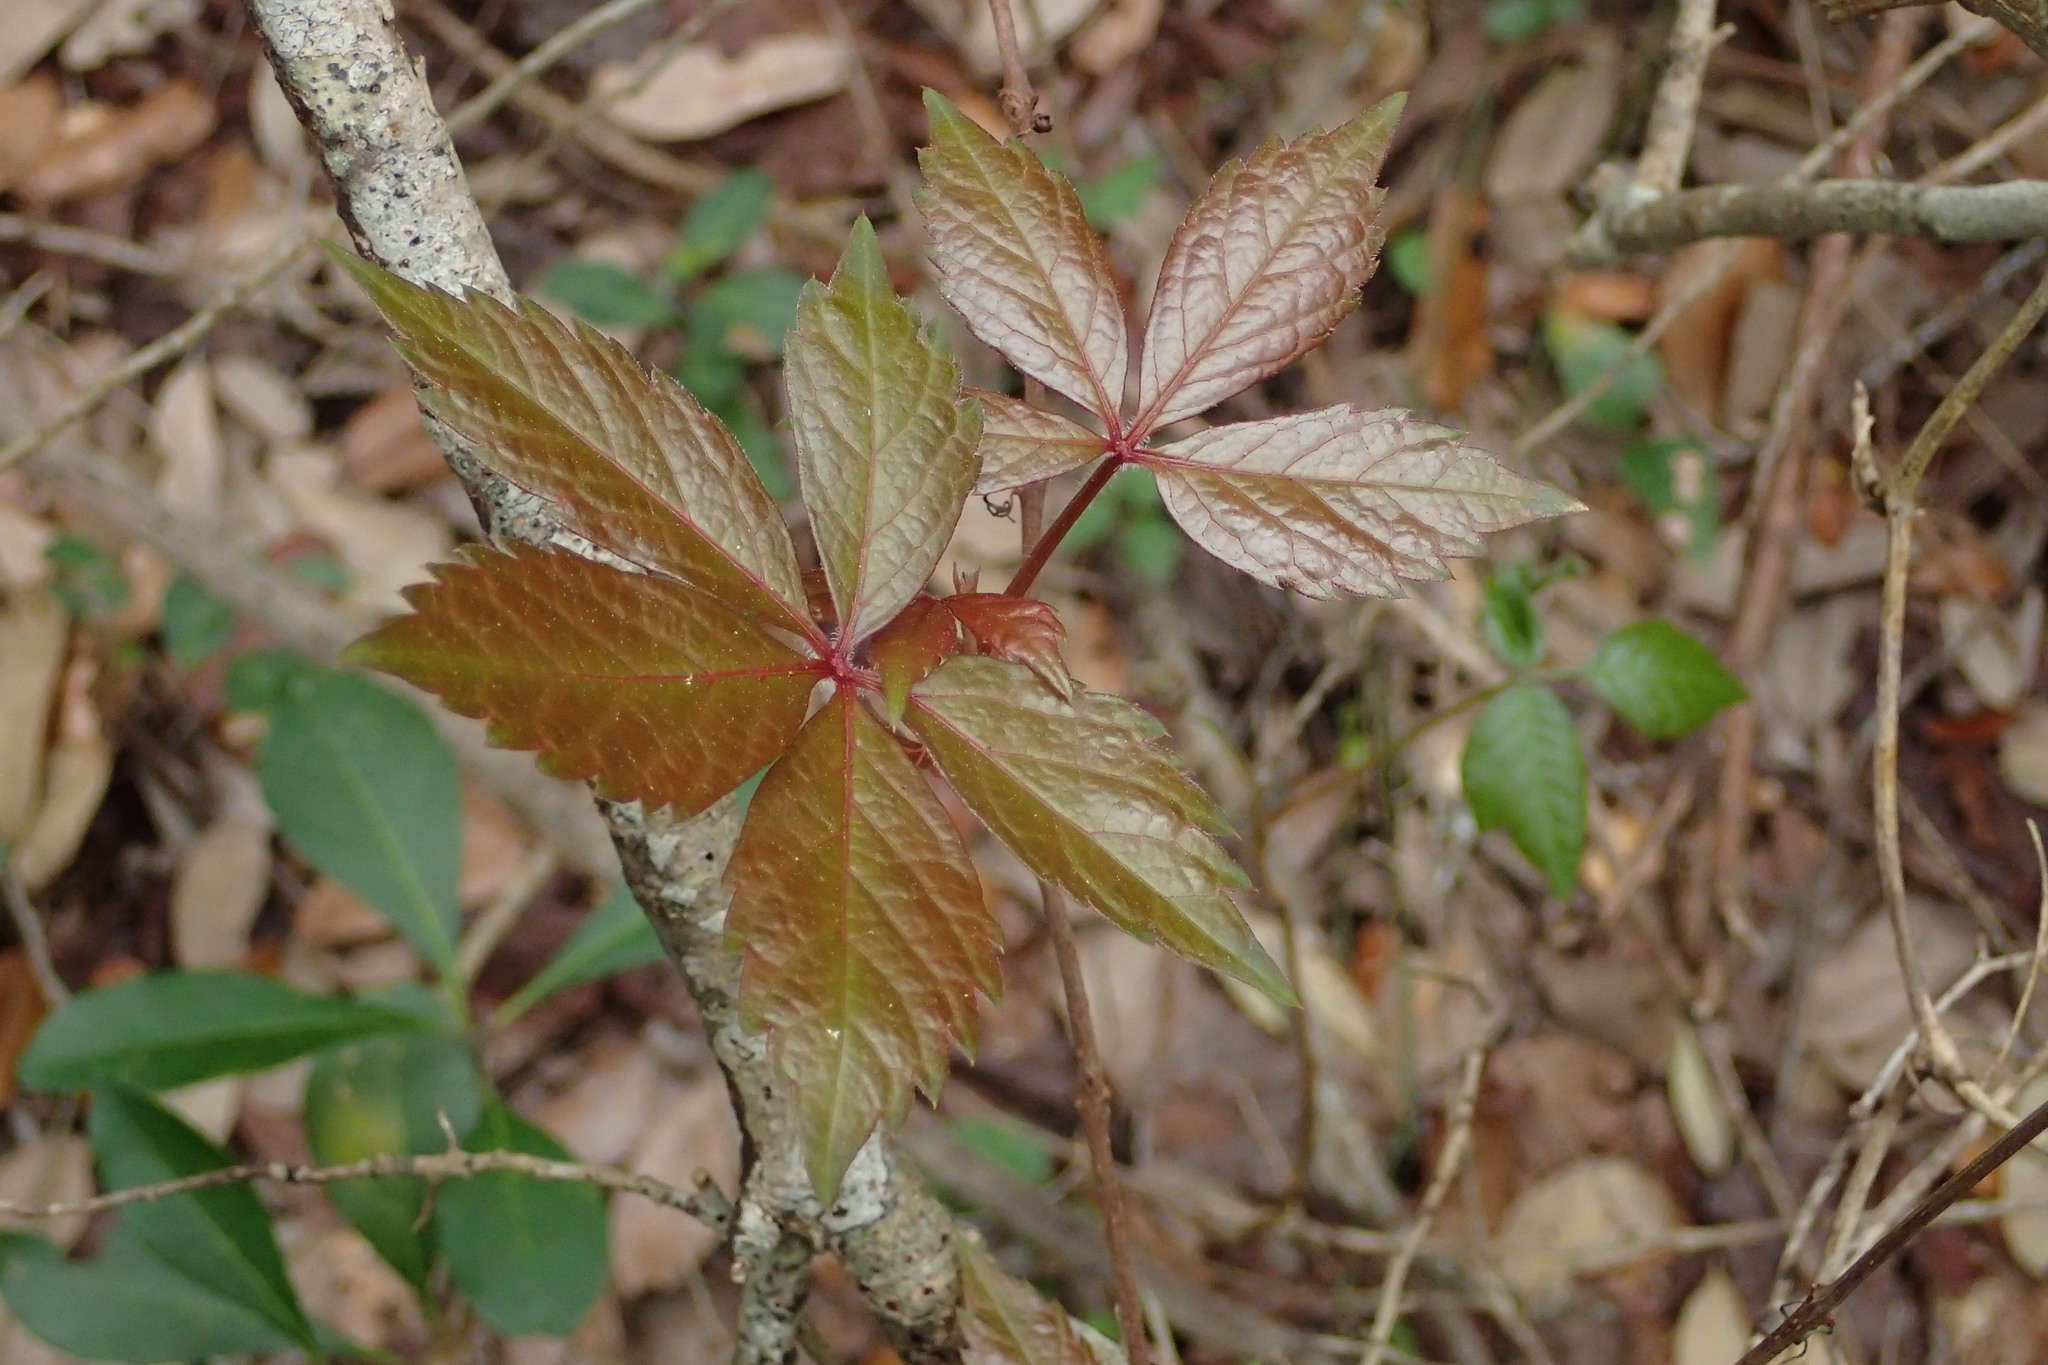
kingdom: Plantae
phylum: Tracheophyta
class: Magnoliopsida
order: Vitales
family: Vitaceae
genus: Parthenocissus
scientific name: Parthenocissus quinquefolia
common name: Virginia-creeper
